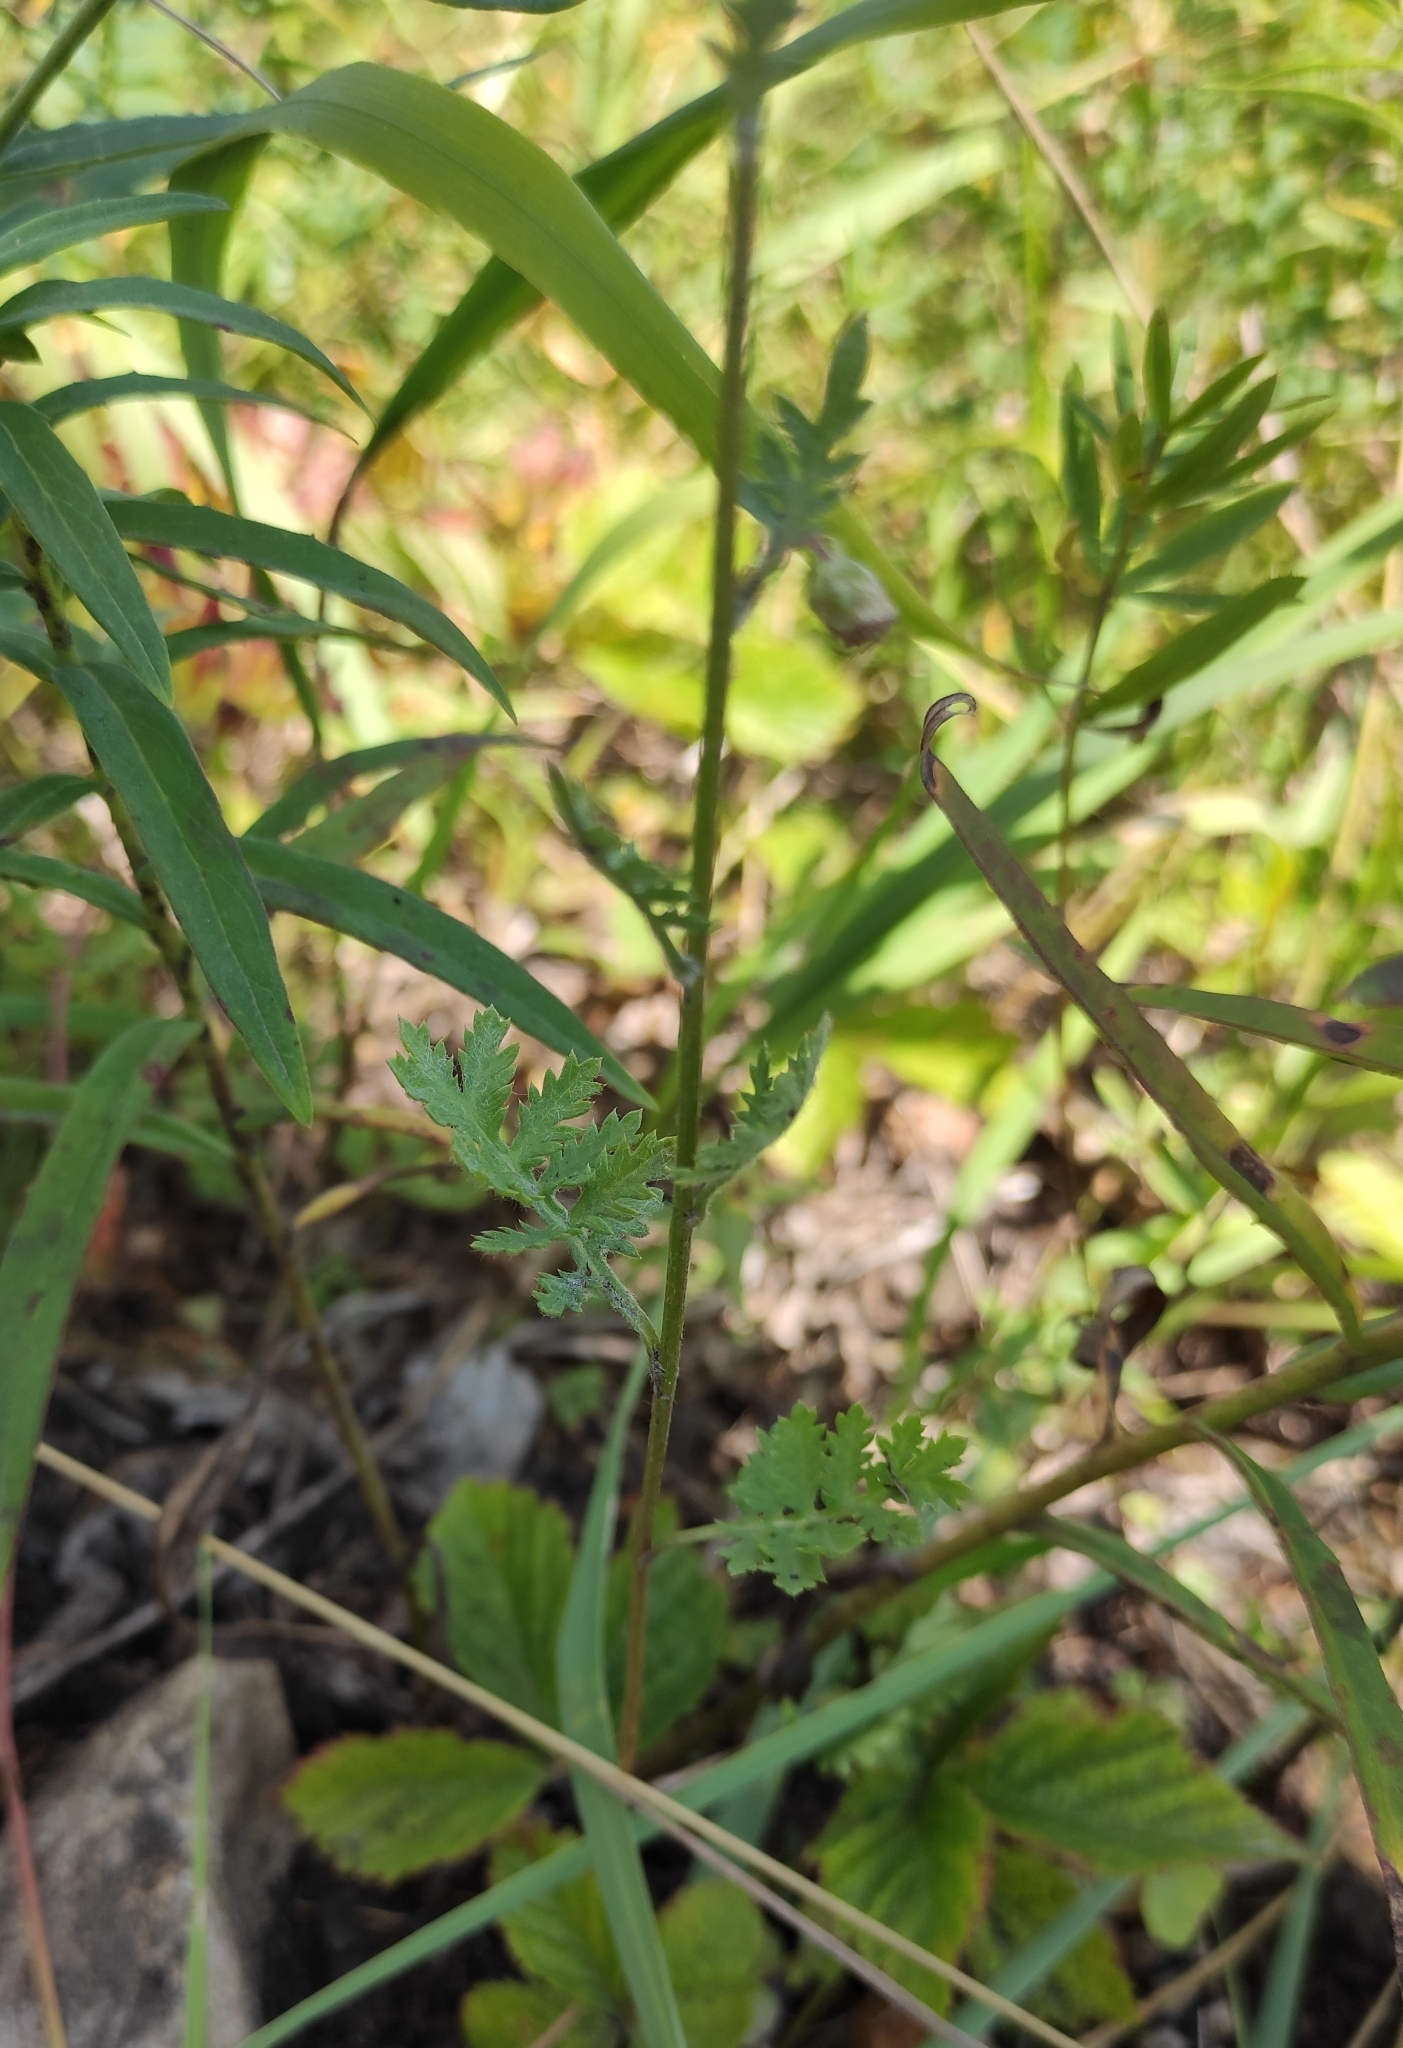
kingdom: Plantae
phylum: Tracheophyta
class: Magnoliopsida
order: Asterales
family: Asteraceae
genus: Artemisia
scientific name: Artemisia tanacetifolia
